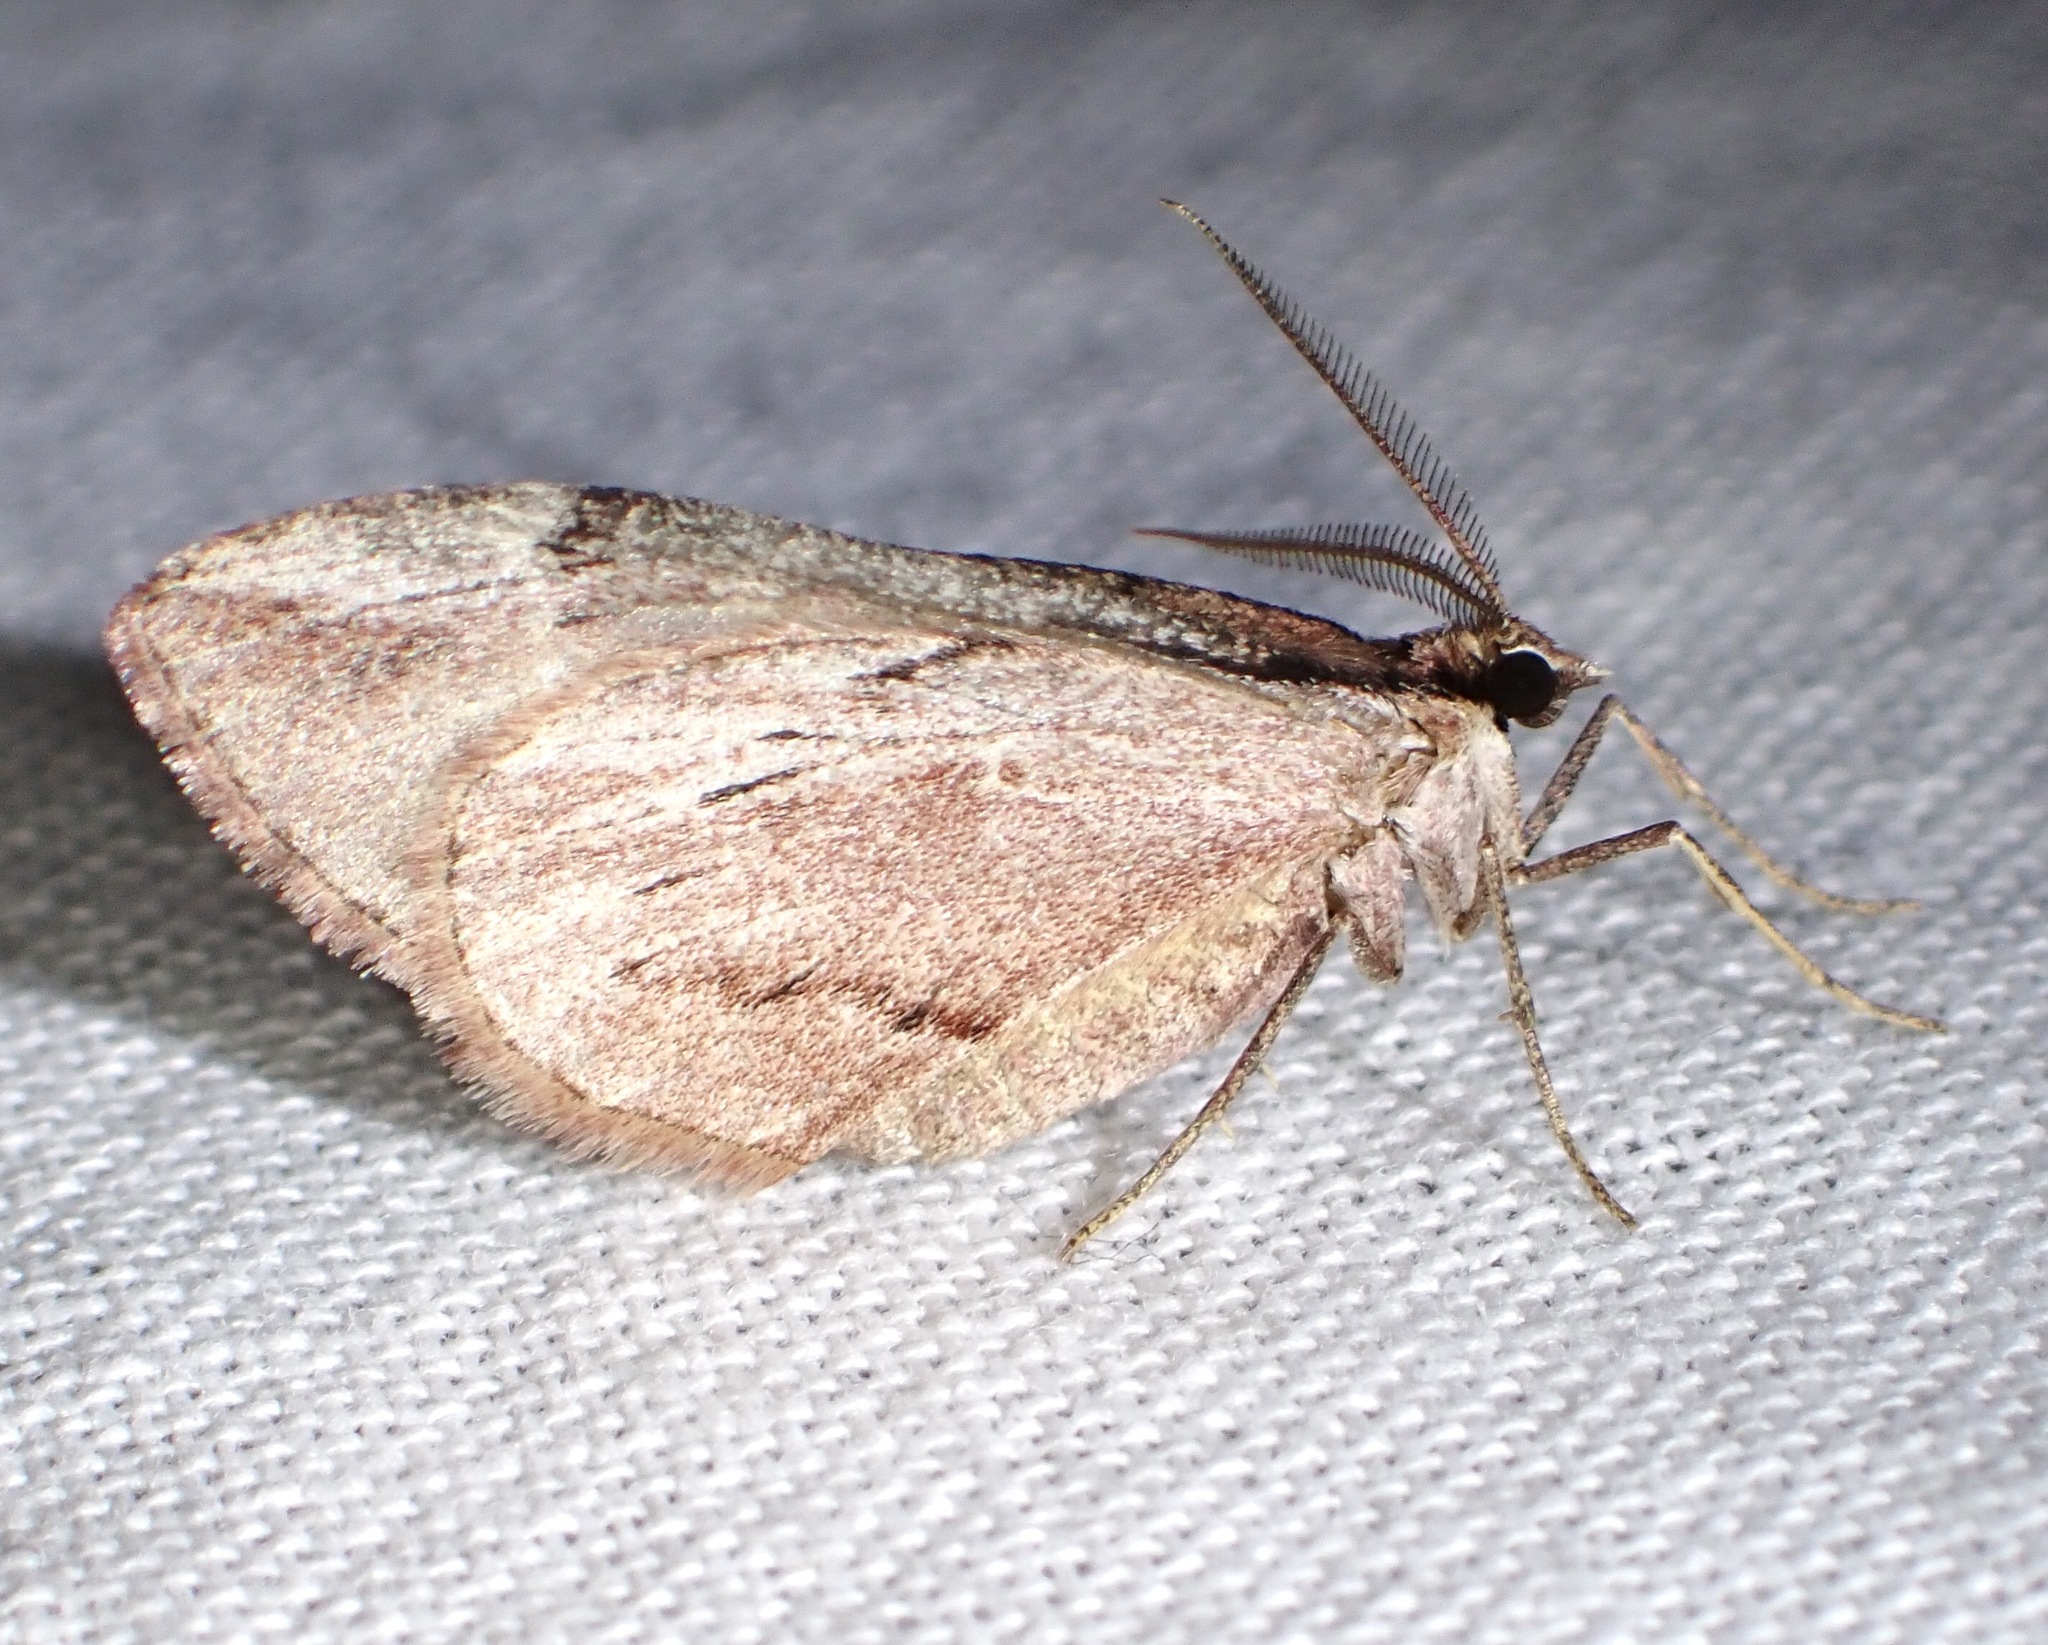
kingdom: Animalia
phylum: Arthropoda
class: Insecta
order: Lepidoptera
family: Geometridae
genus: Stamnoctenis
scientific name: Stamnoctenis pearsalli
